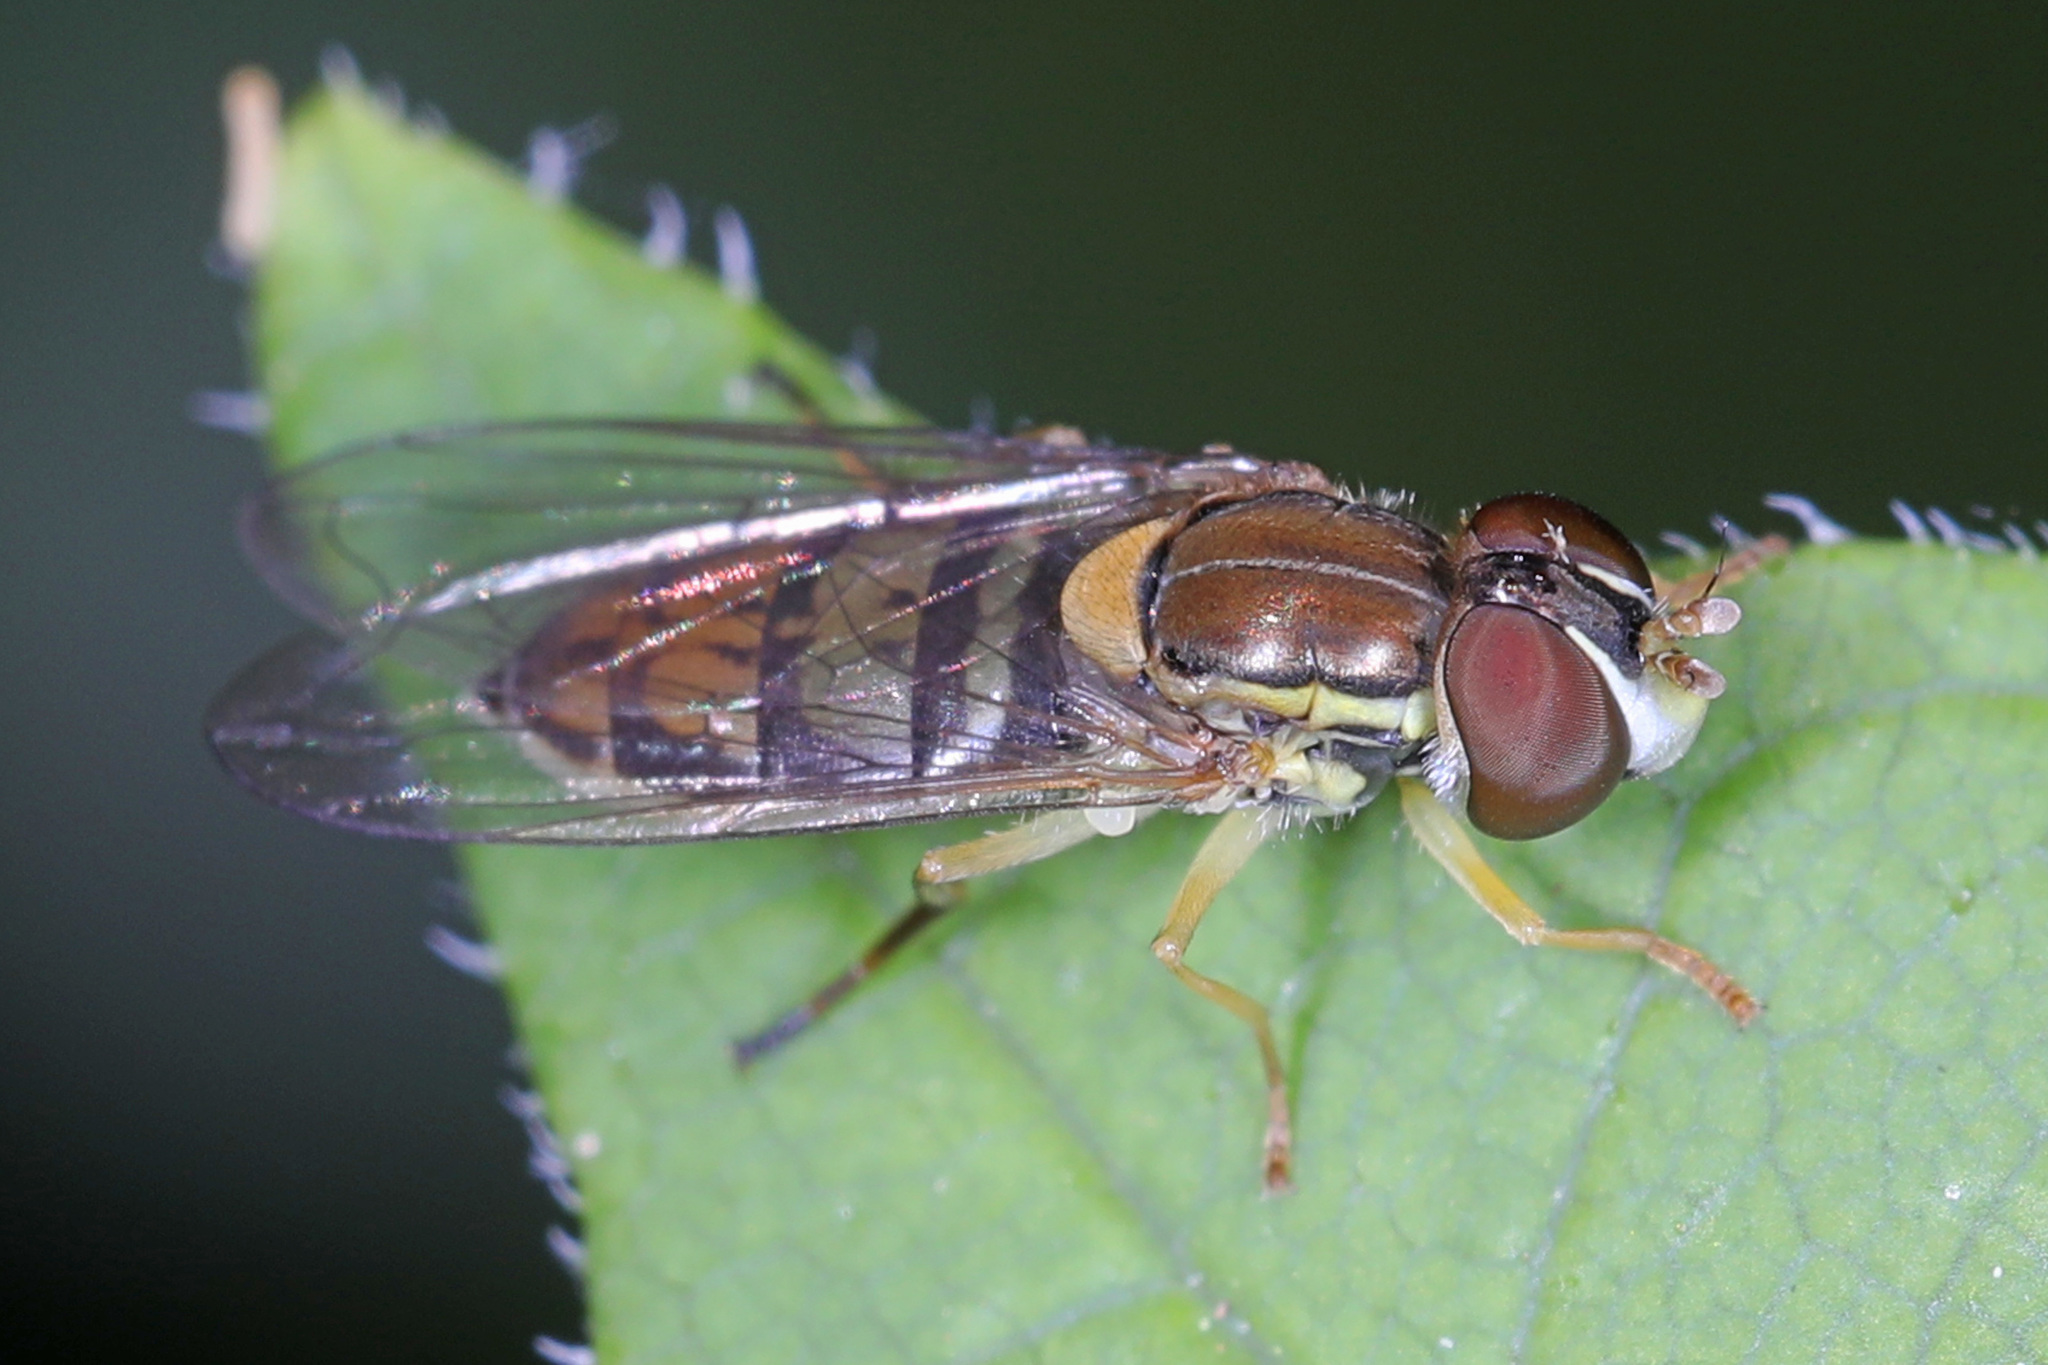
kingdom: Animalia
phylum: Arthropoda
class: Insecta
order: Diptera
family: Syrphidae
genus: Toxomerus
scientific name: Toxomerus marginatus
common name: Syrphid fly
